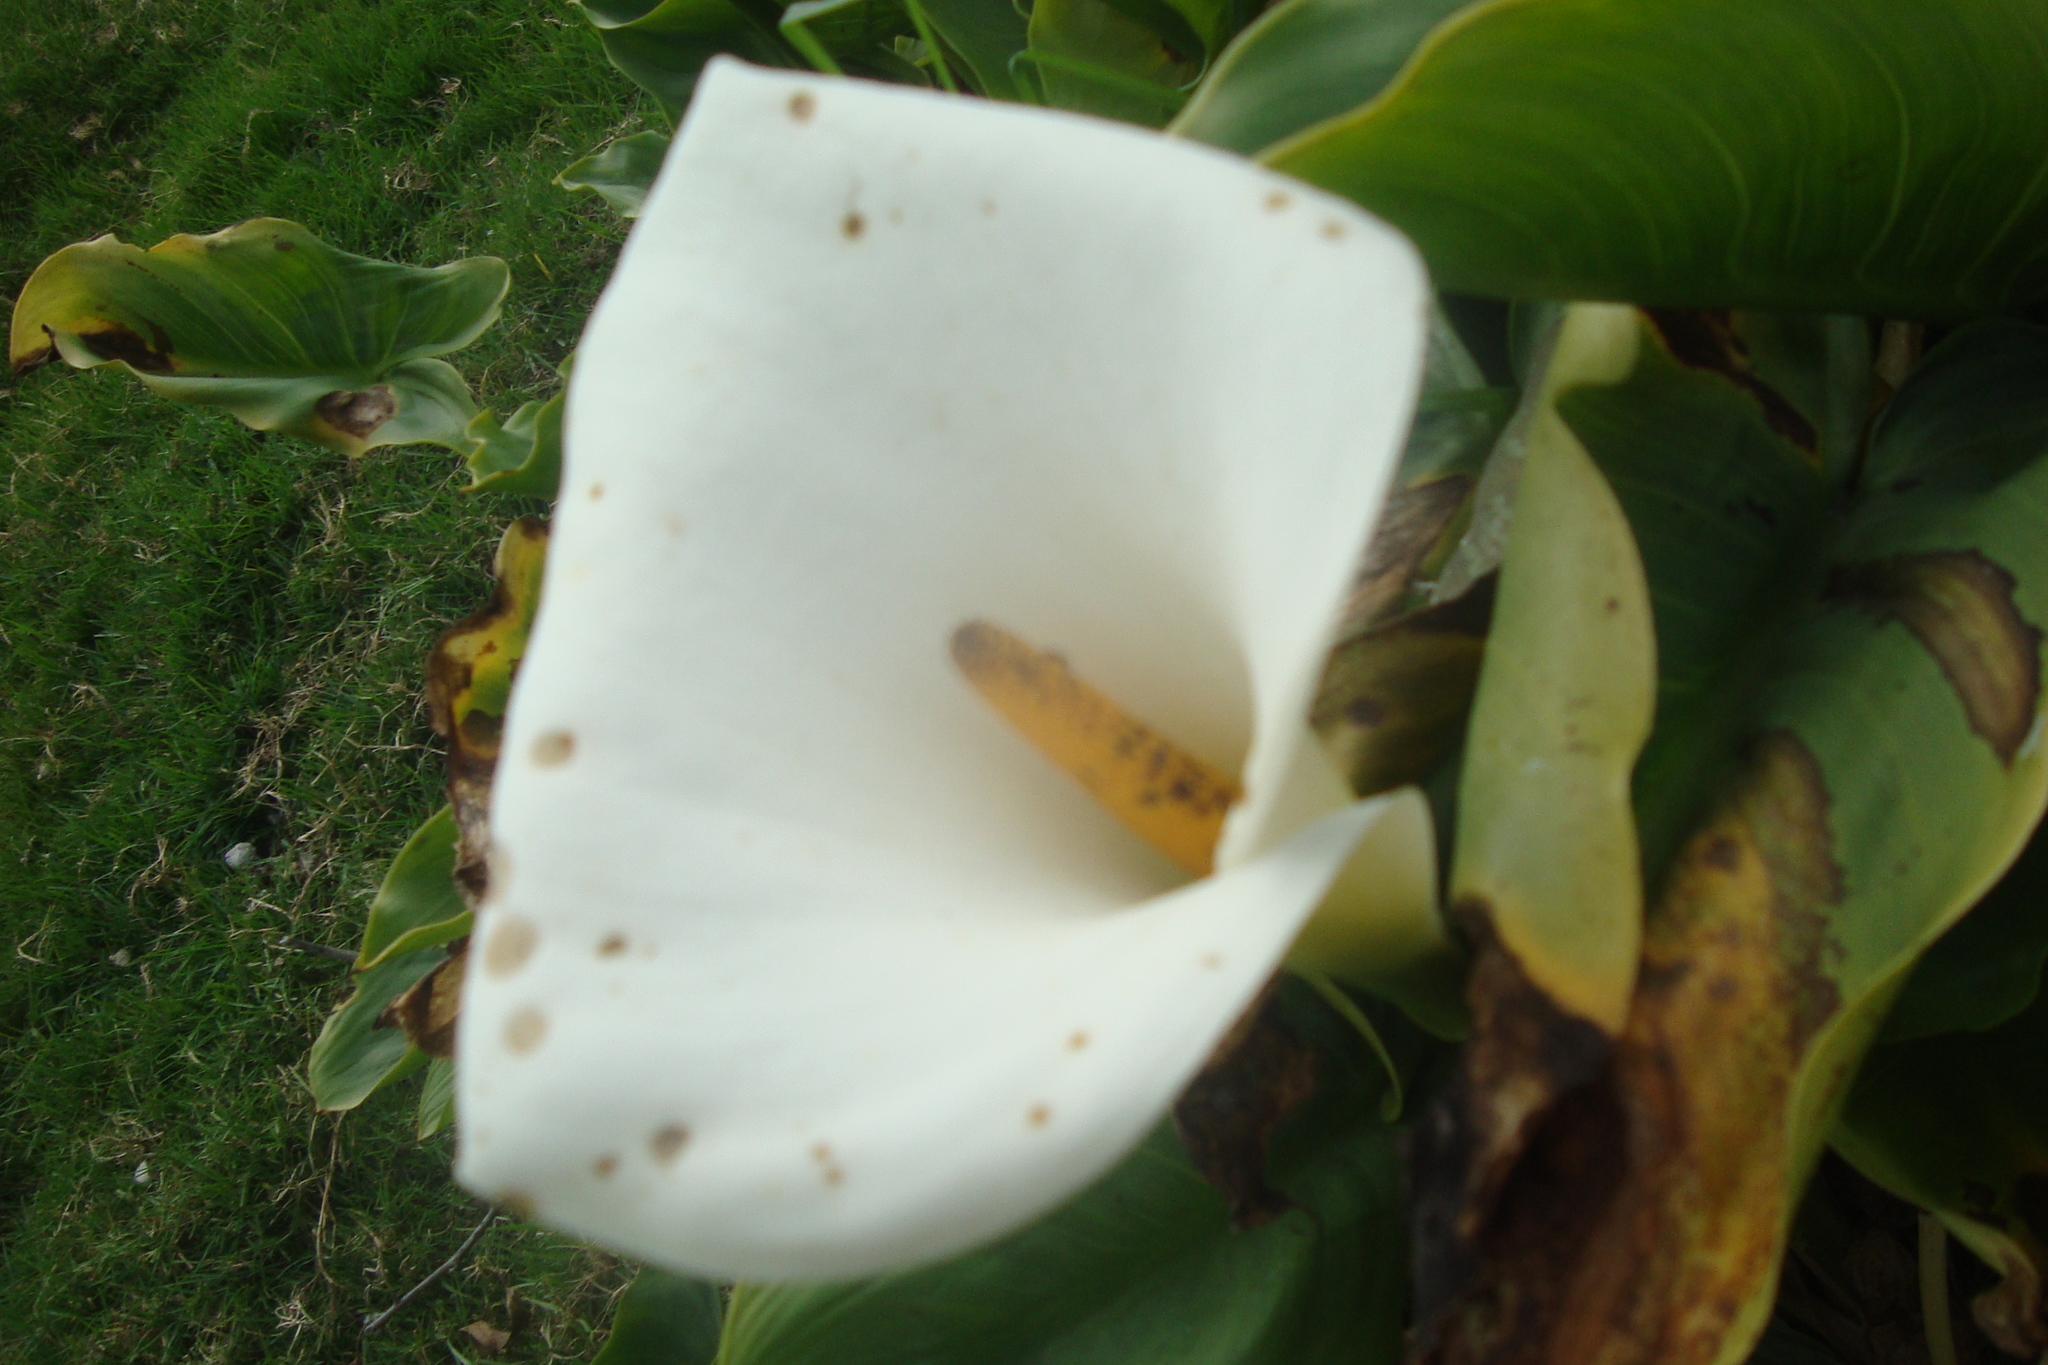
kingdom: Plantae
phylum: Tracheophyta
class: Liliopsida
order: Alismatales
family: Araceae
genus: Zantedeschia
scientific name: Zantedeschia aethiopica
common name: Altar-lily
